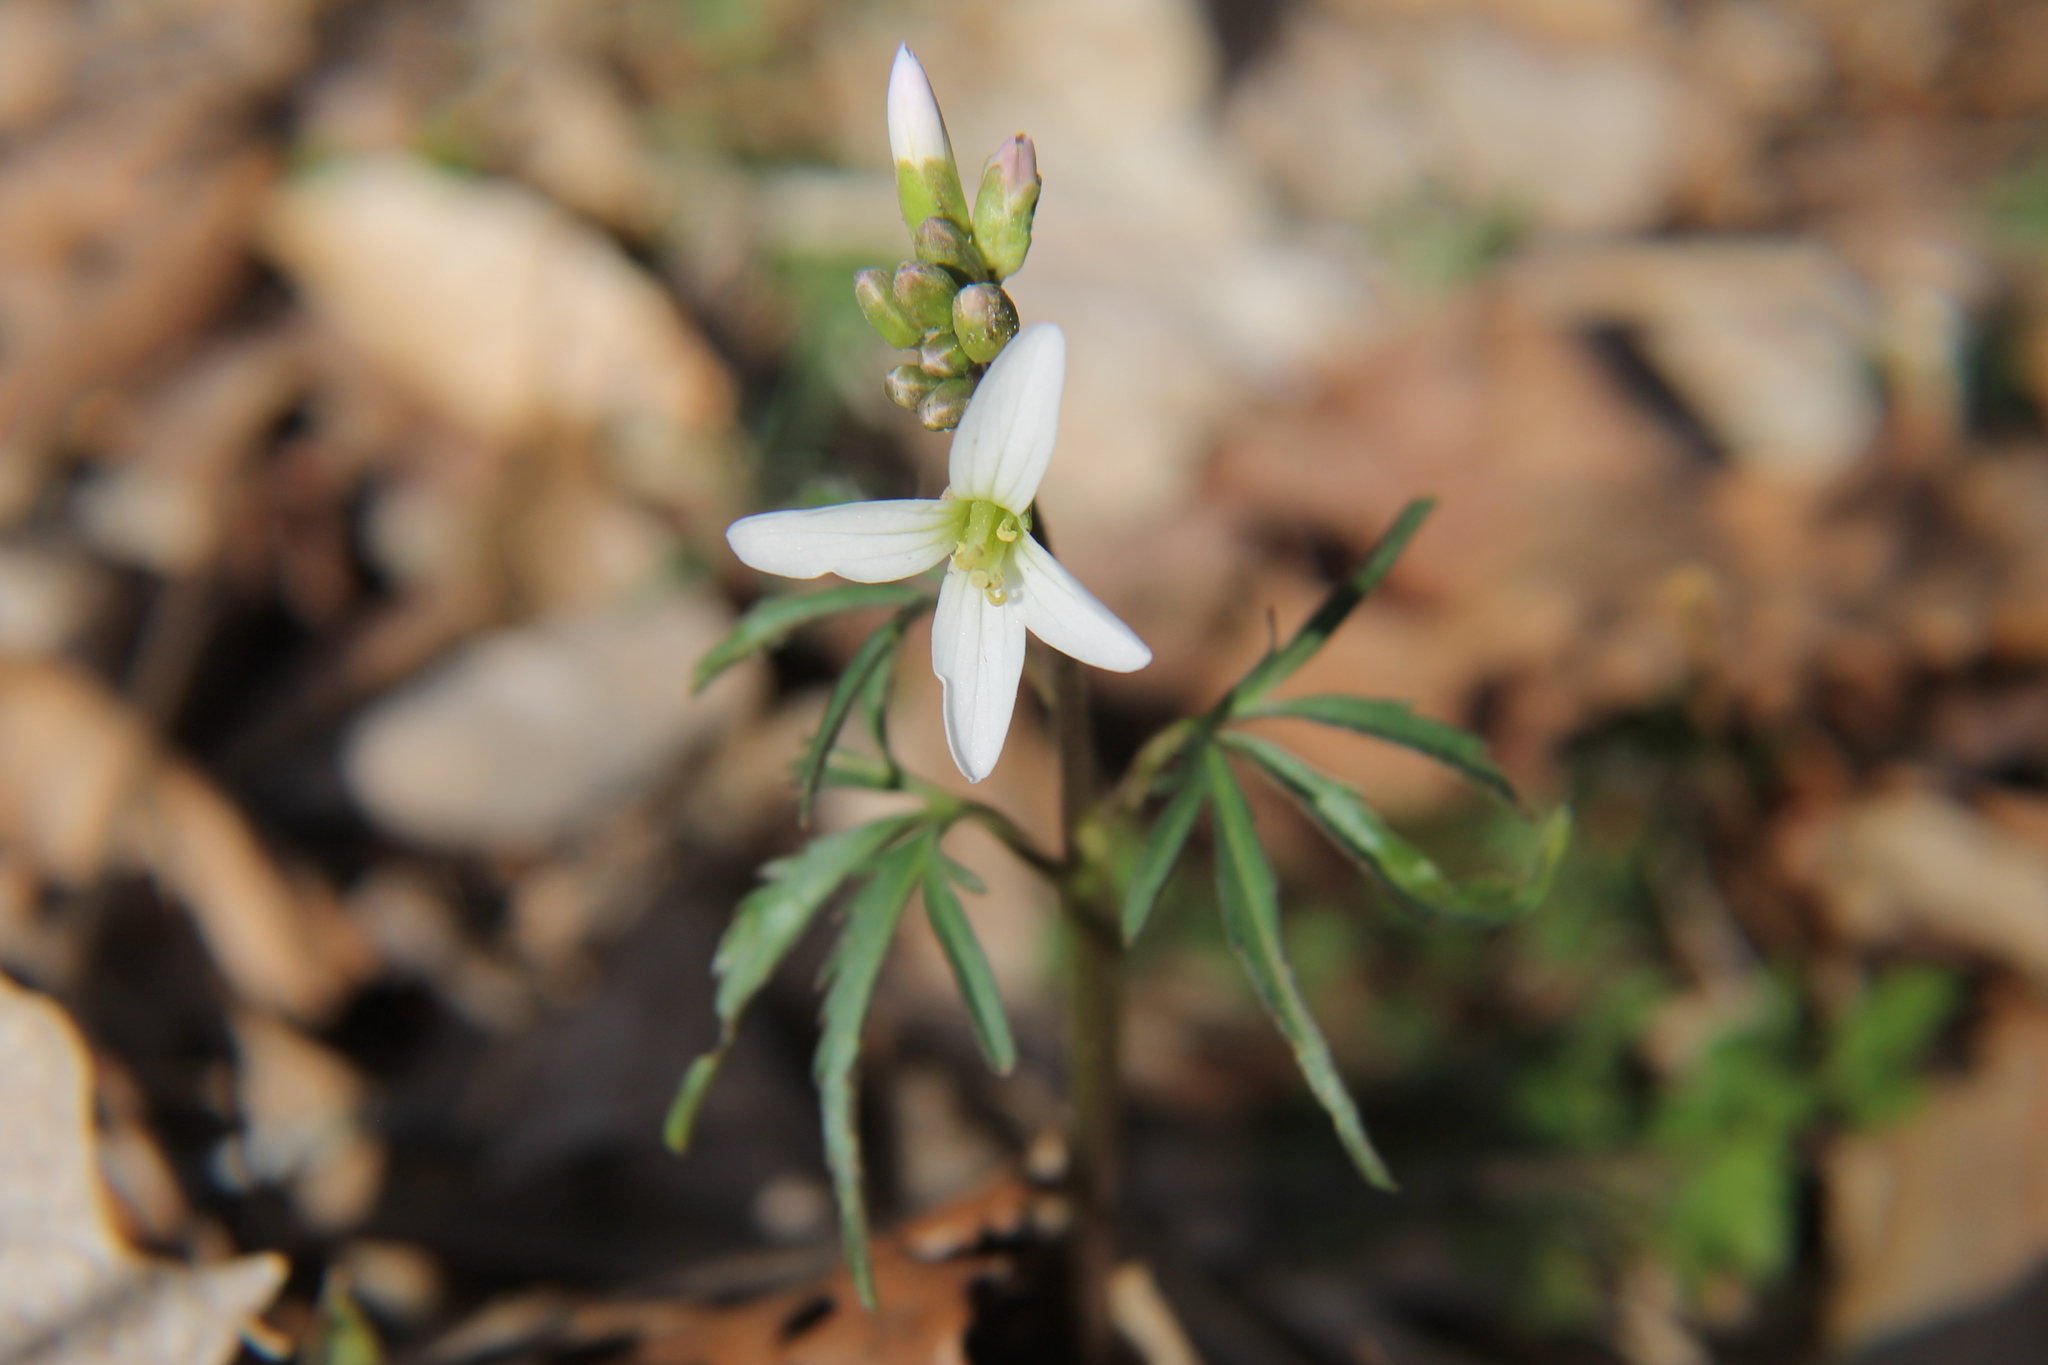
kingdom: Plantae
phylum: Tracheophyta
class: Magnoliopsida
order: Brassicales
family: Brassicaceae
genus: Cardamine
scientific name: Cardamine concatenata
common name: Cut-leaf toothcup
